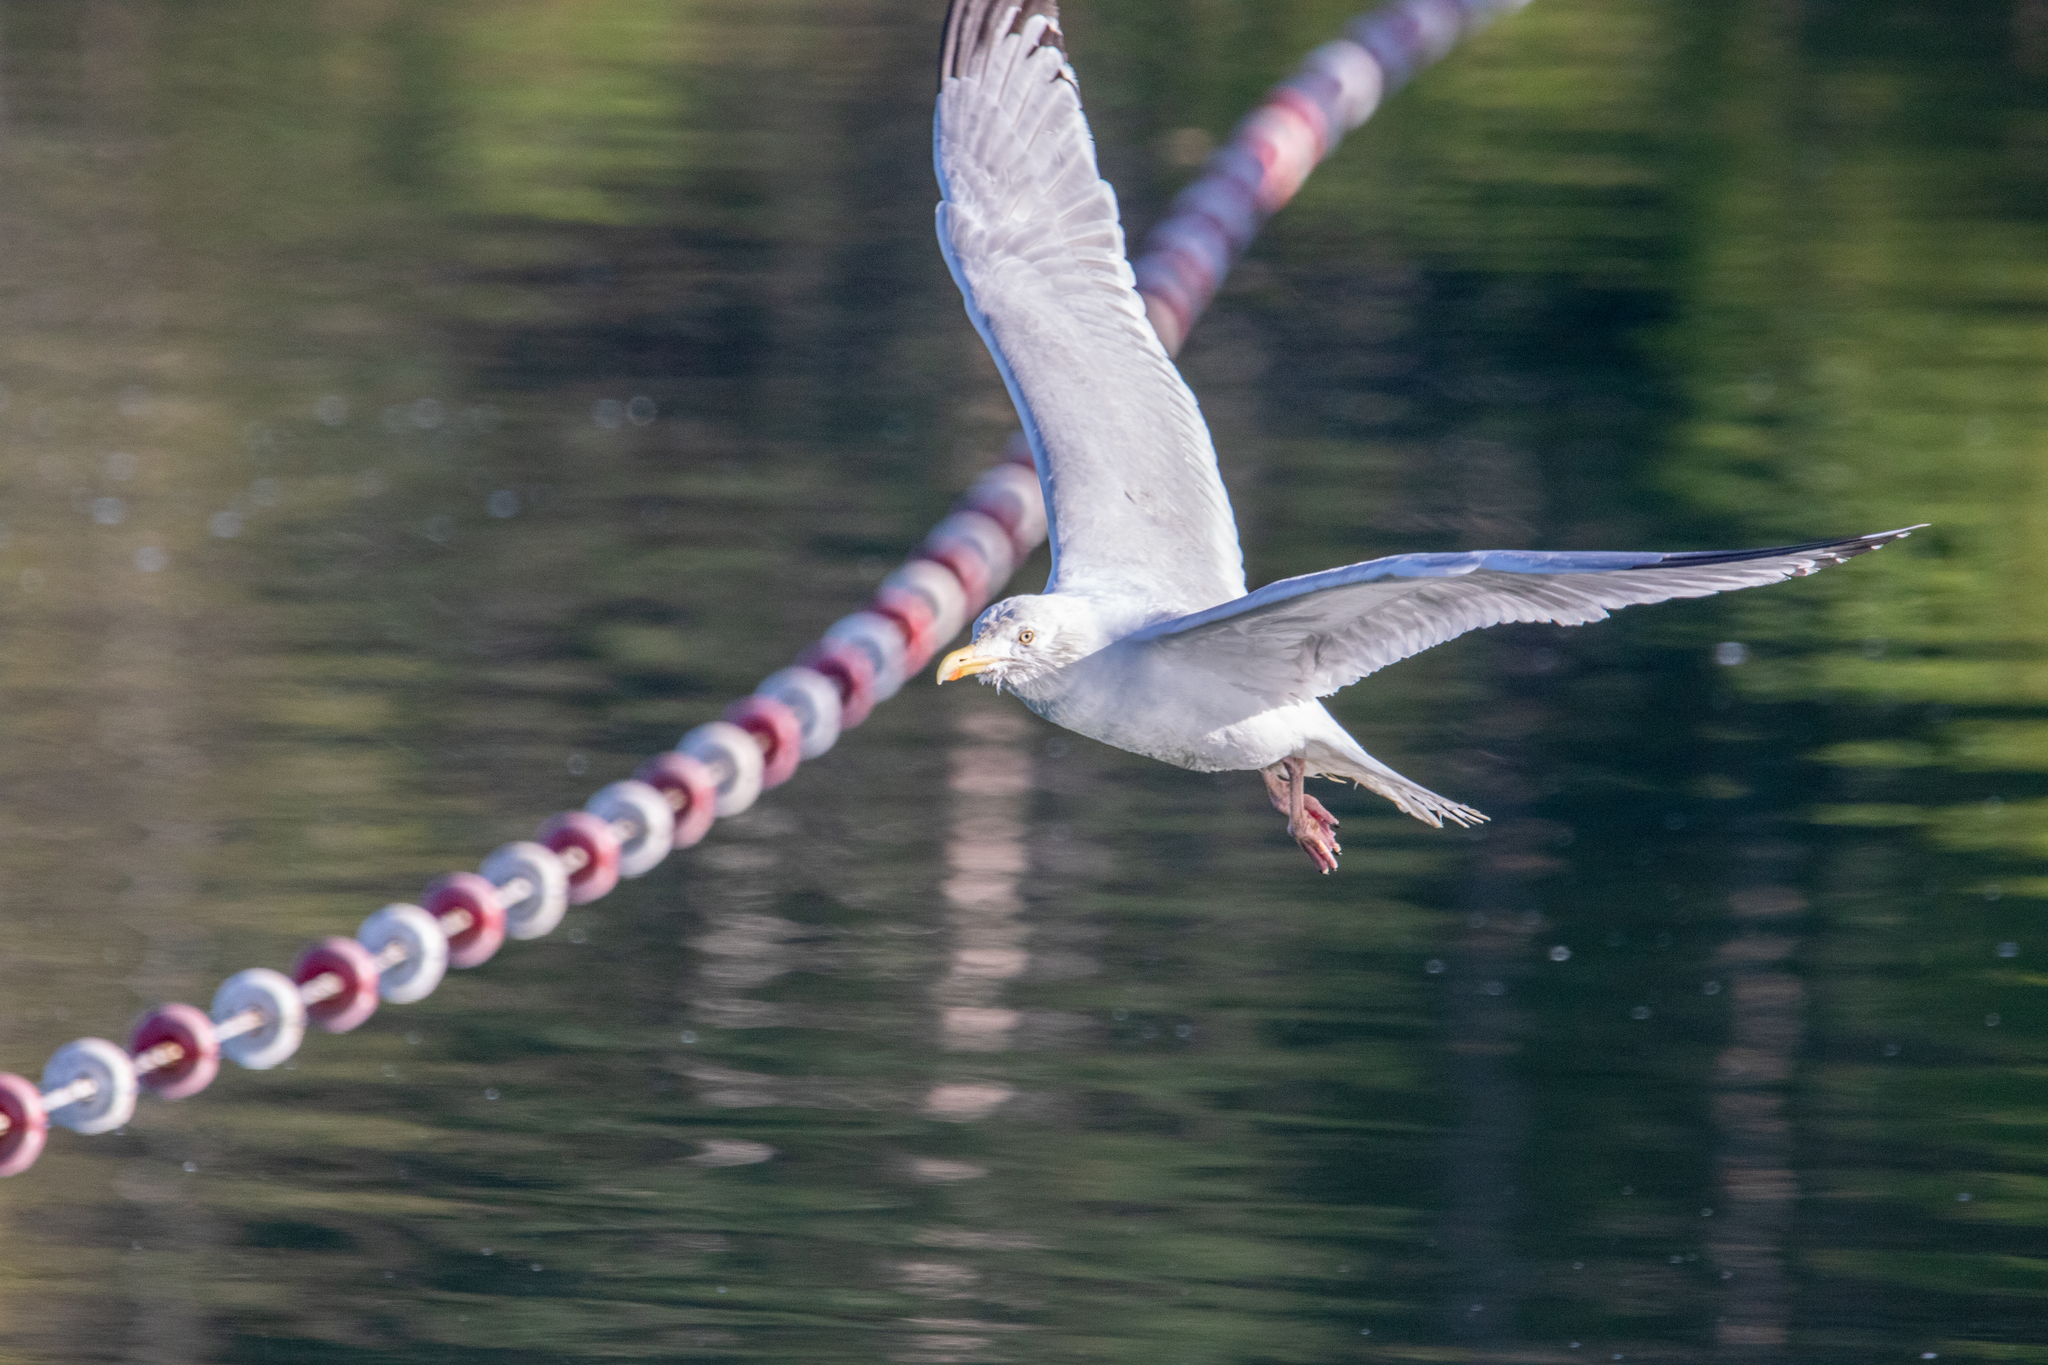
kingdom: Animalia
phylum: Chordata
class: Aves
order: Charadriiformes
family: Laridae
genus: Larus
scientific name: Larus argentatus
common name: Herring gull
